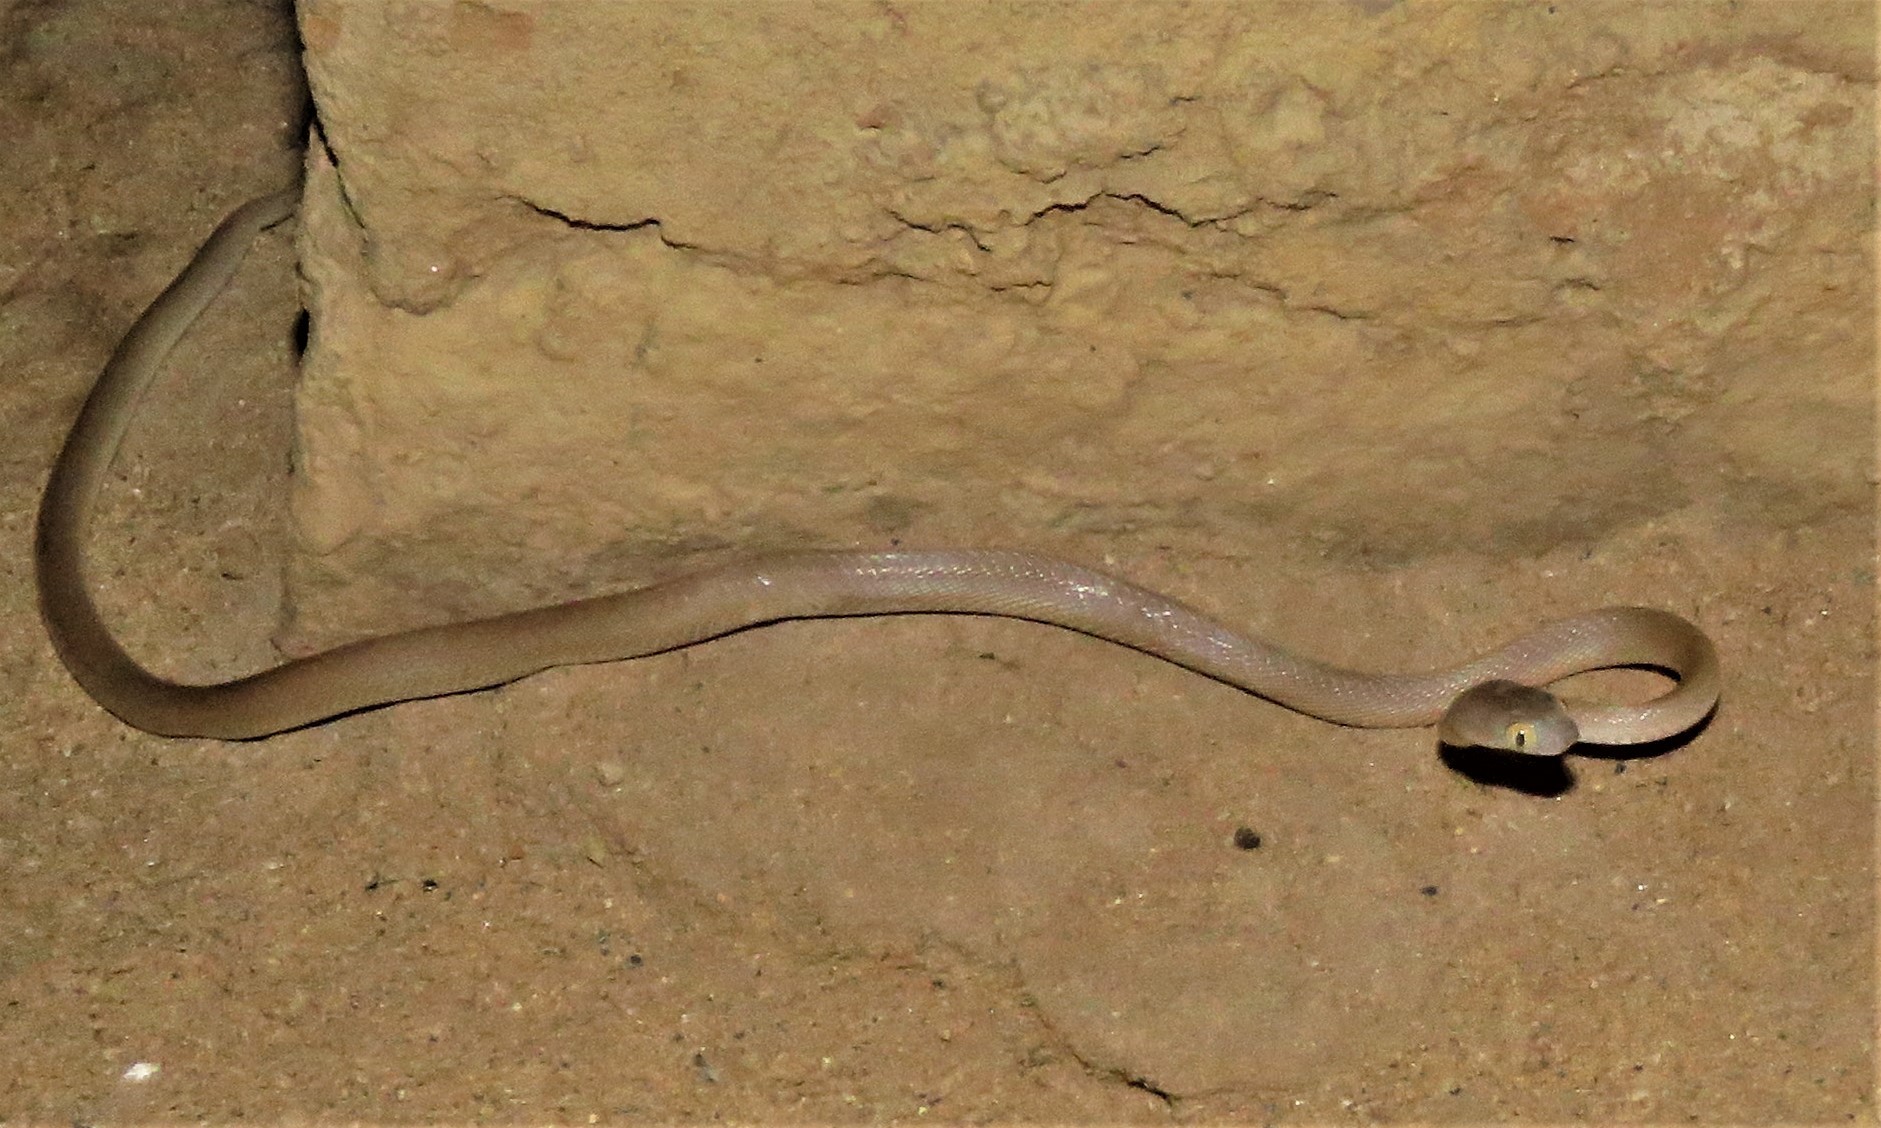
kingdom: Animalia
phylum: Chordata
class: Squamata
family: Colubridae
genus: Telescopus
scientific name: Telescopus dhara
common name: Arabian cat snake
